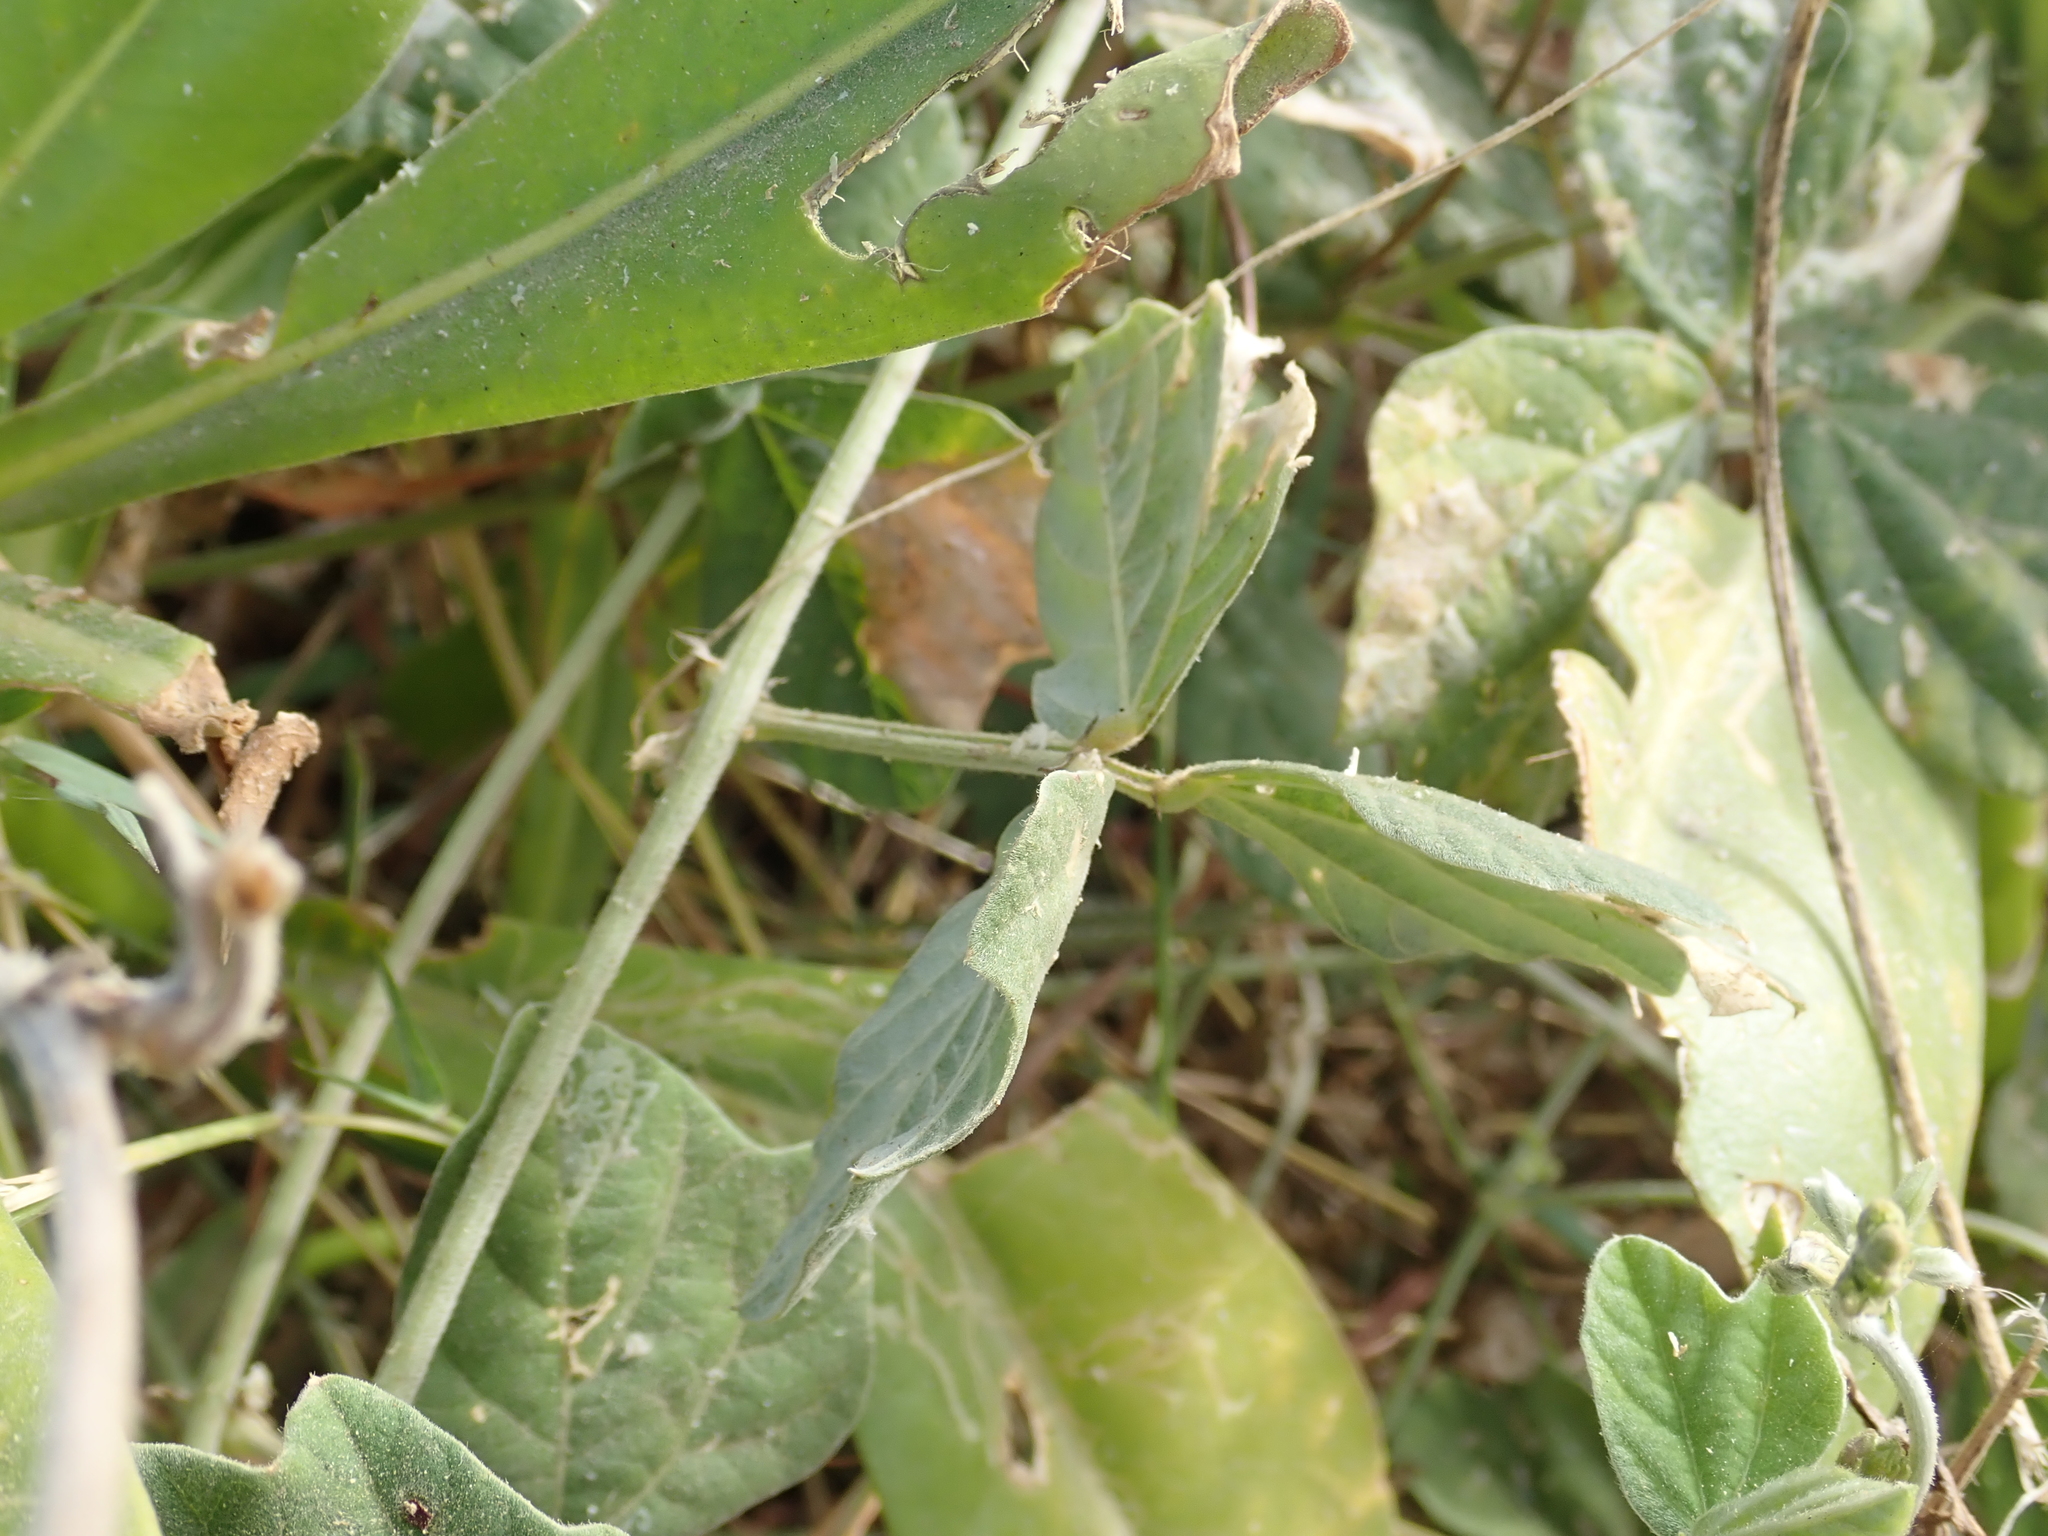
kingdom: Plantae
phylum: Tracheophyta
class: Magnoliopsida
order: Fabales
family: Fabaceae
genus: Macroptilium
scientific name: Macroptilium atropurpureum
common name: Purple bushbean
